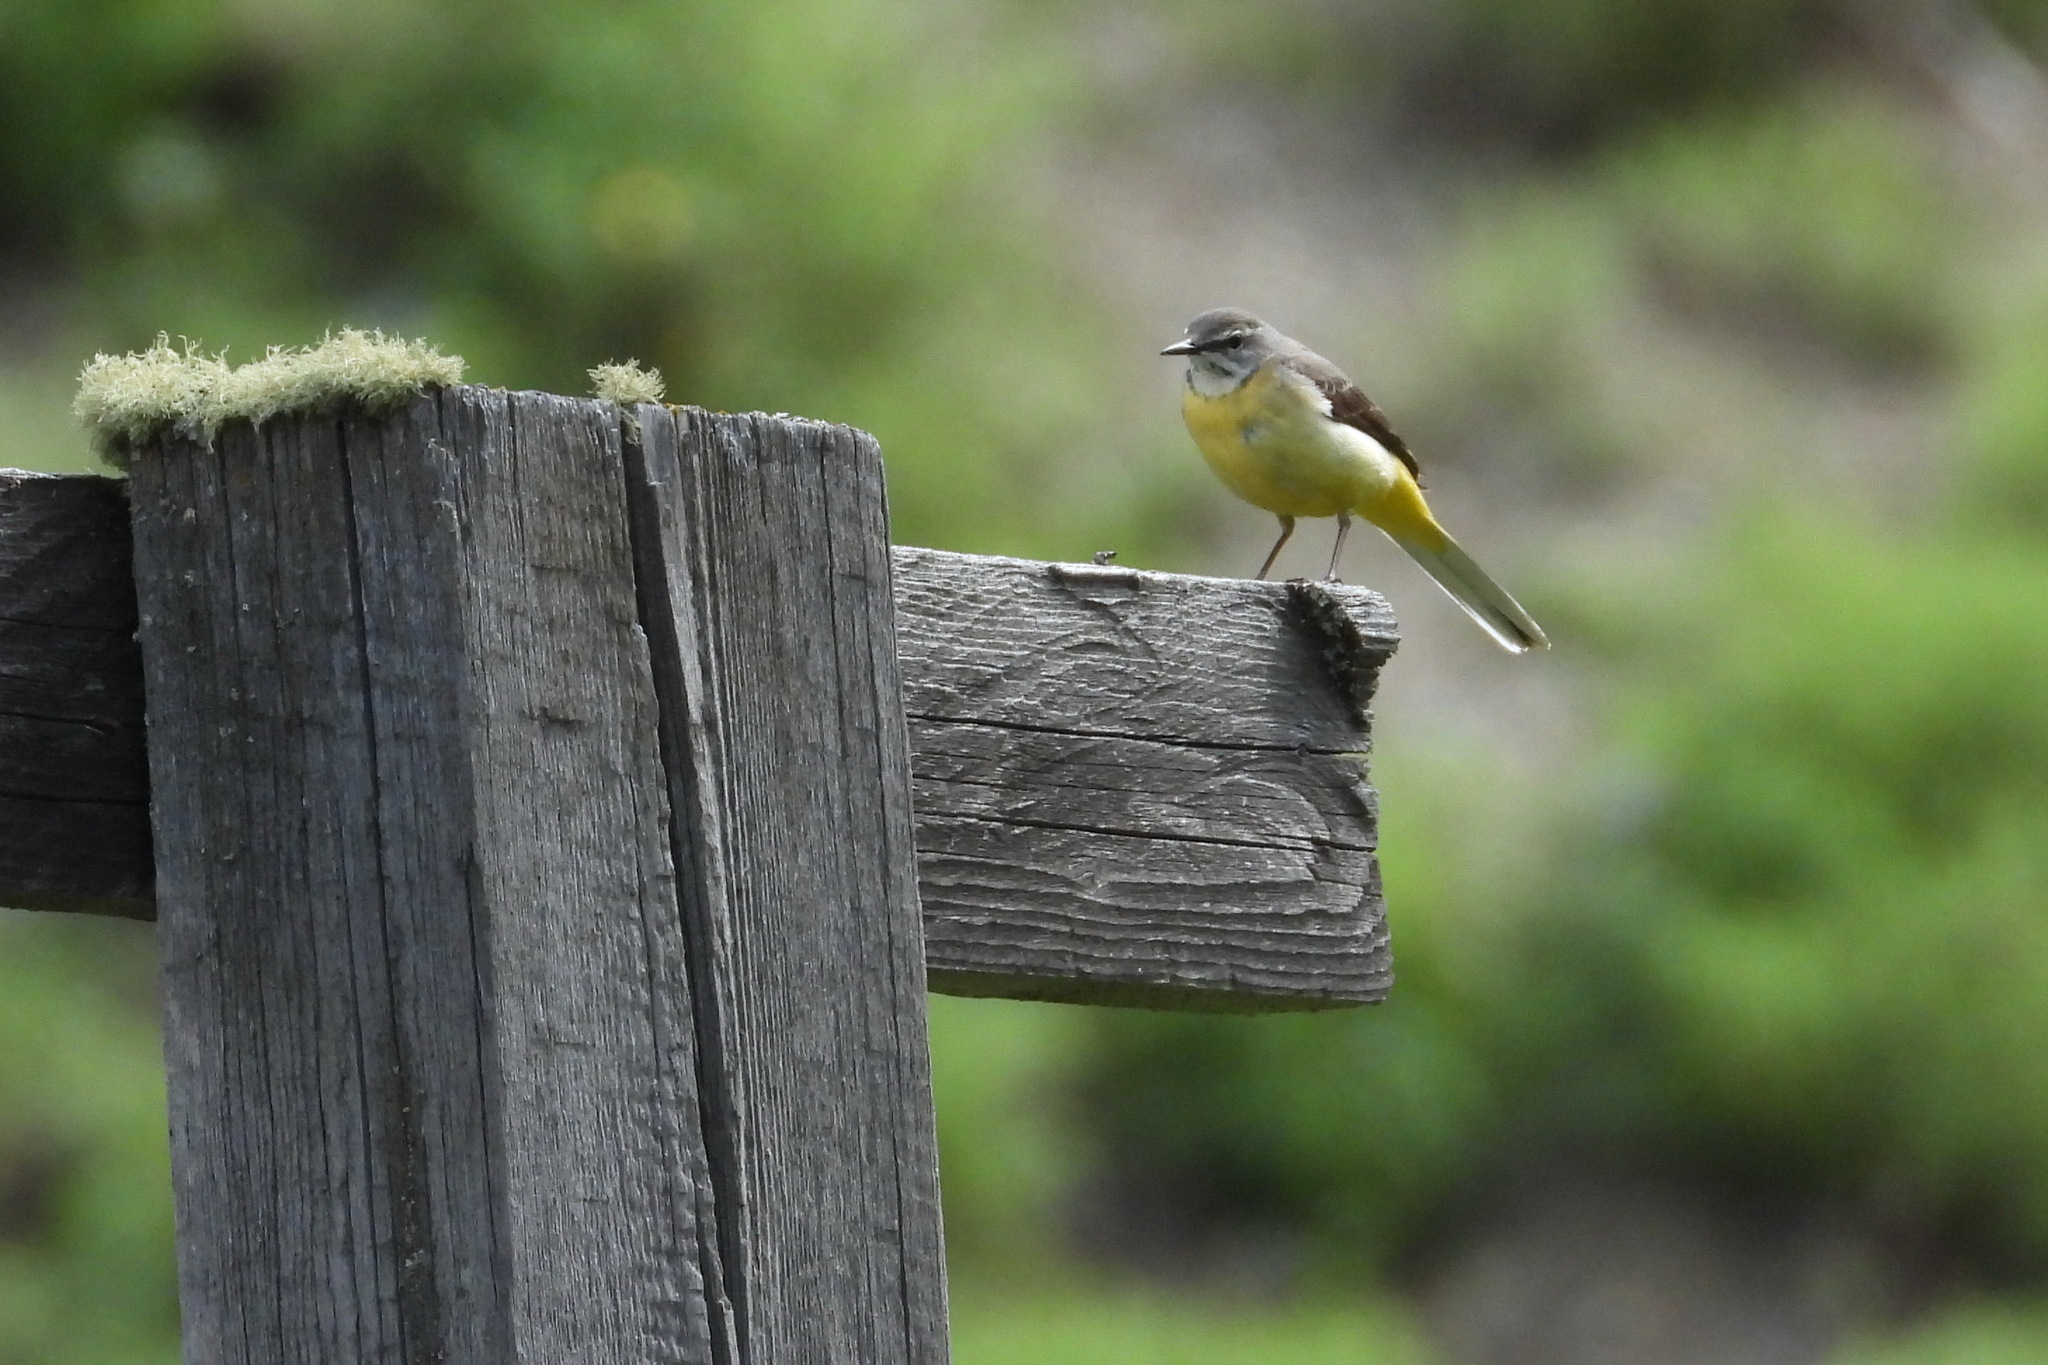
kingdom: Animalia
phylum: Chordata
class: Aves
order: Passeriformes
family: Motacillidae
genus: Motacilla
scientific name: Motacilla cinerea
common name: Grey wagtail
